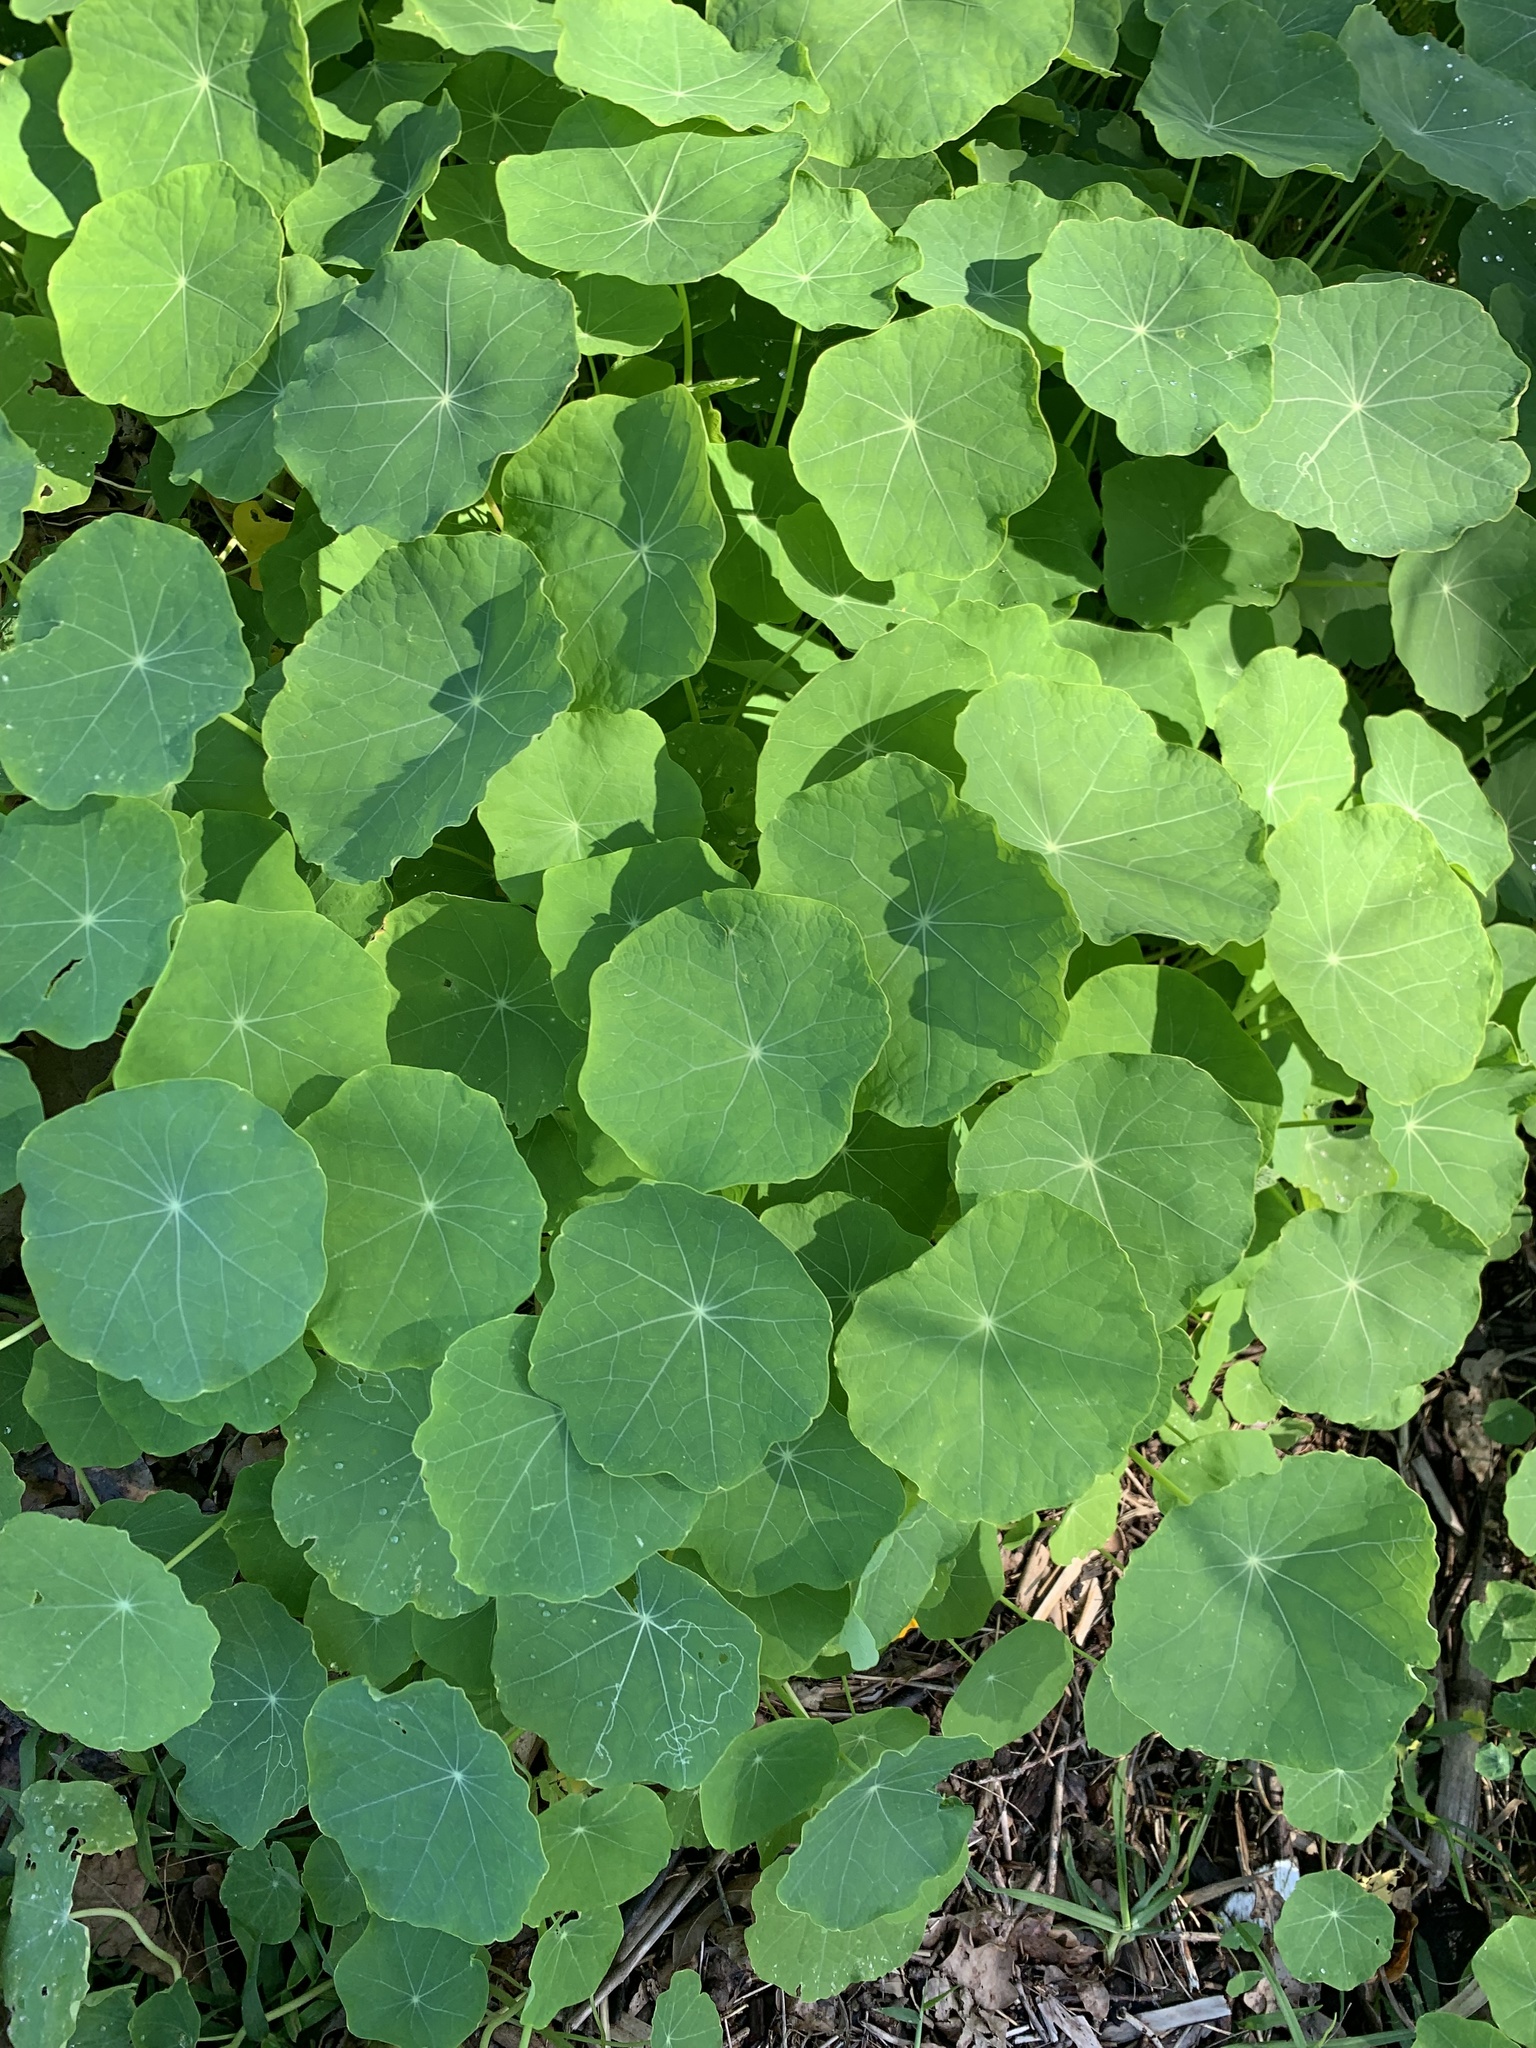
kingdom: Plantae
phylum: Tracheophyta
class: Magnoliopsida
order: Brassicales
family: Tropaeolaceae
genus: Tropaeolum
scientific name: Tropaeolum majus
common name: Nasturtium
